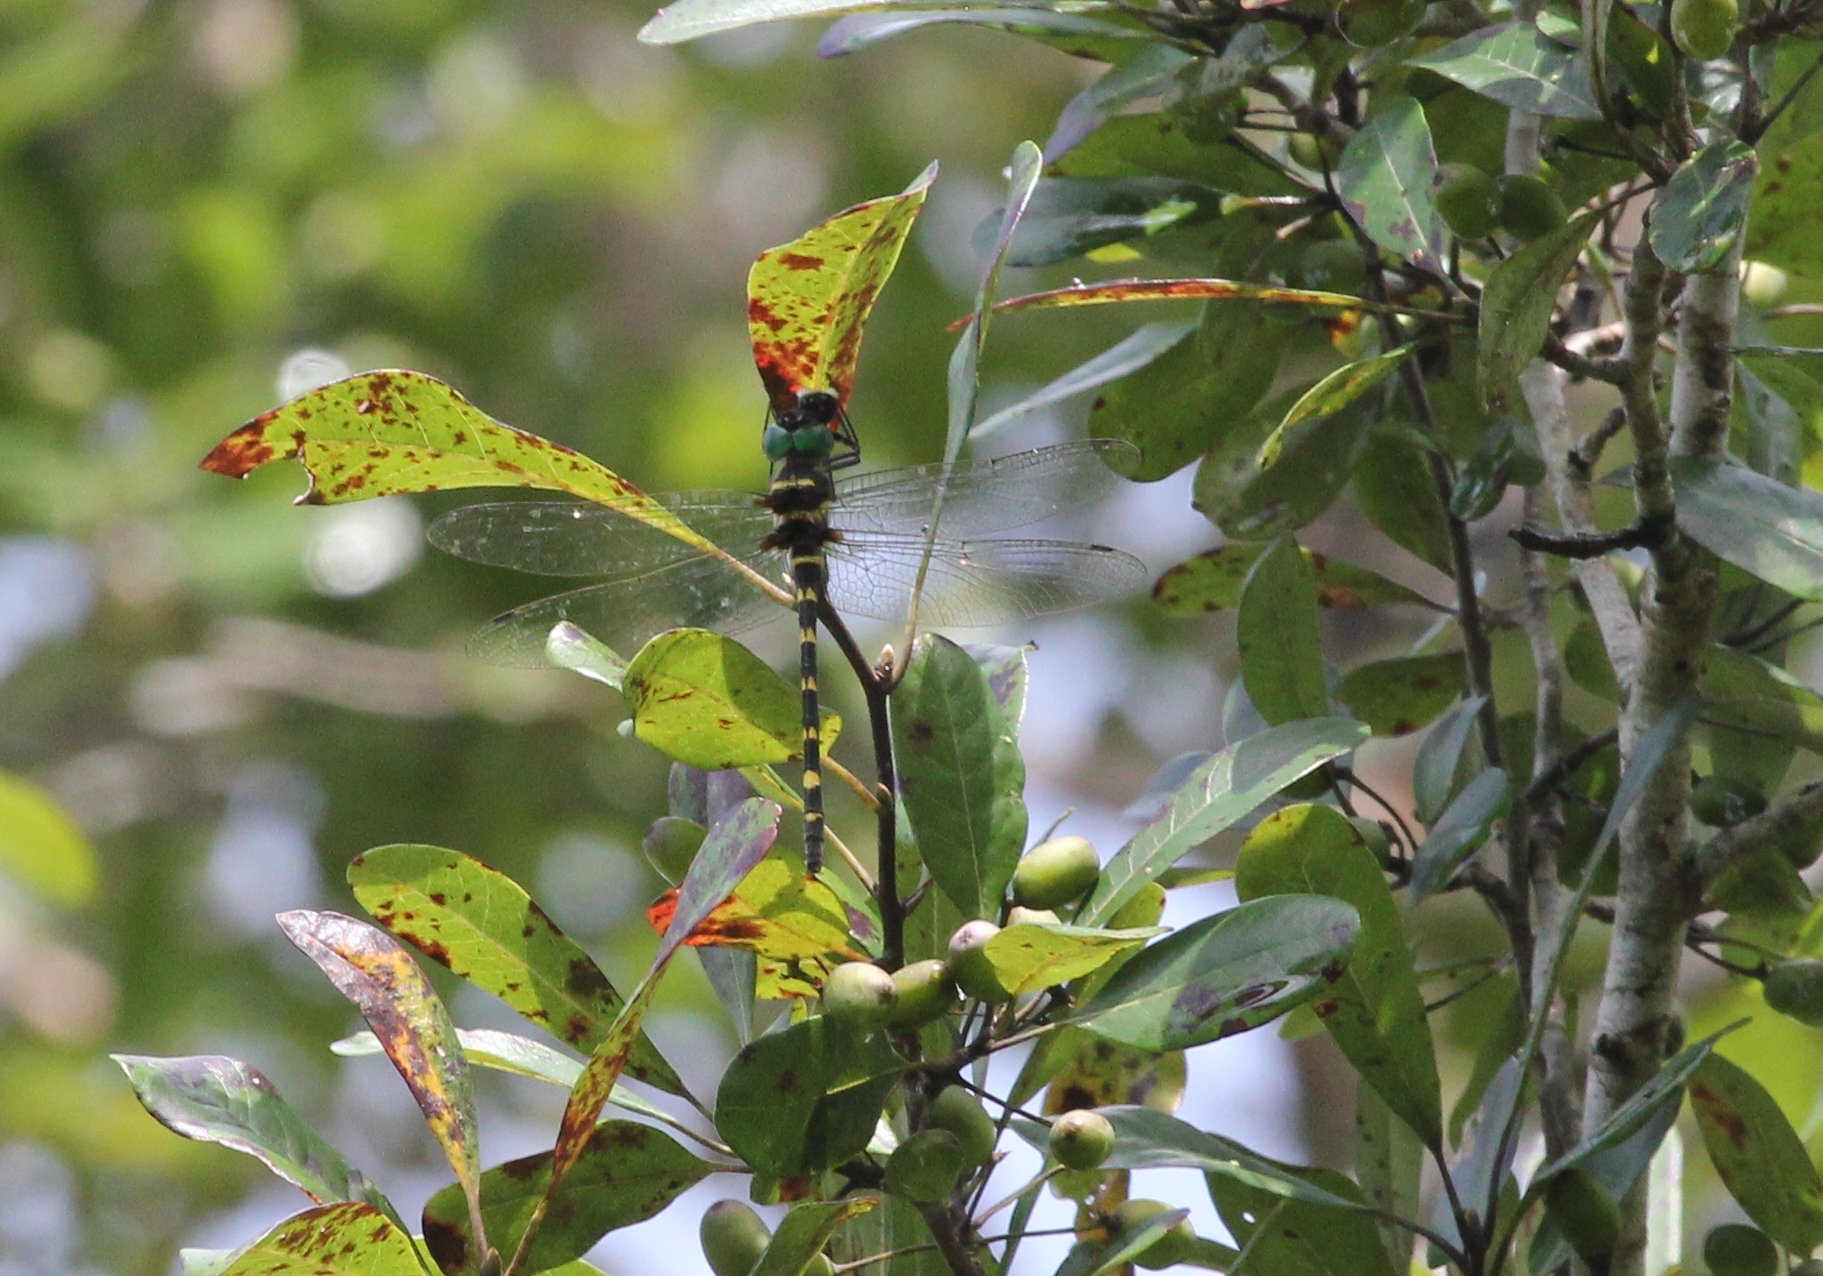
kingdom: Animalia
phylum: Arthropoda
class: Insecta
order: Odonata
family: Macromiidae
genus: Macromia
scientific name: Macromia illinoiensis
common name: Swift river cruiser
